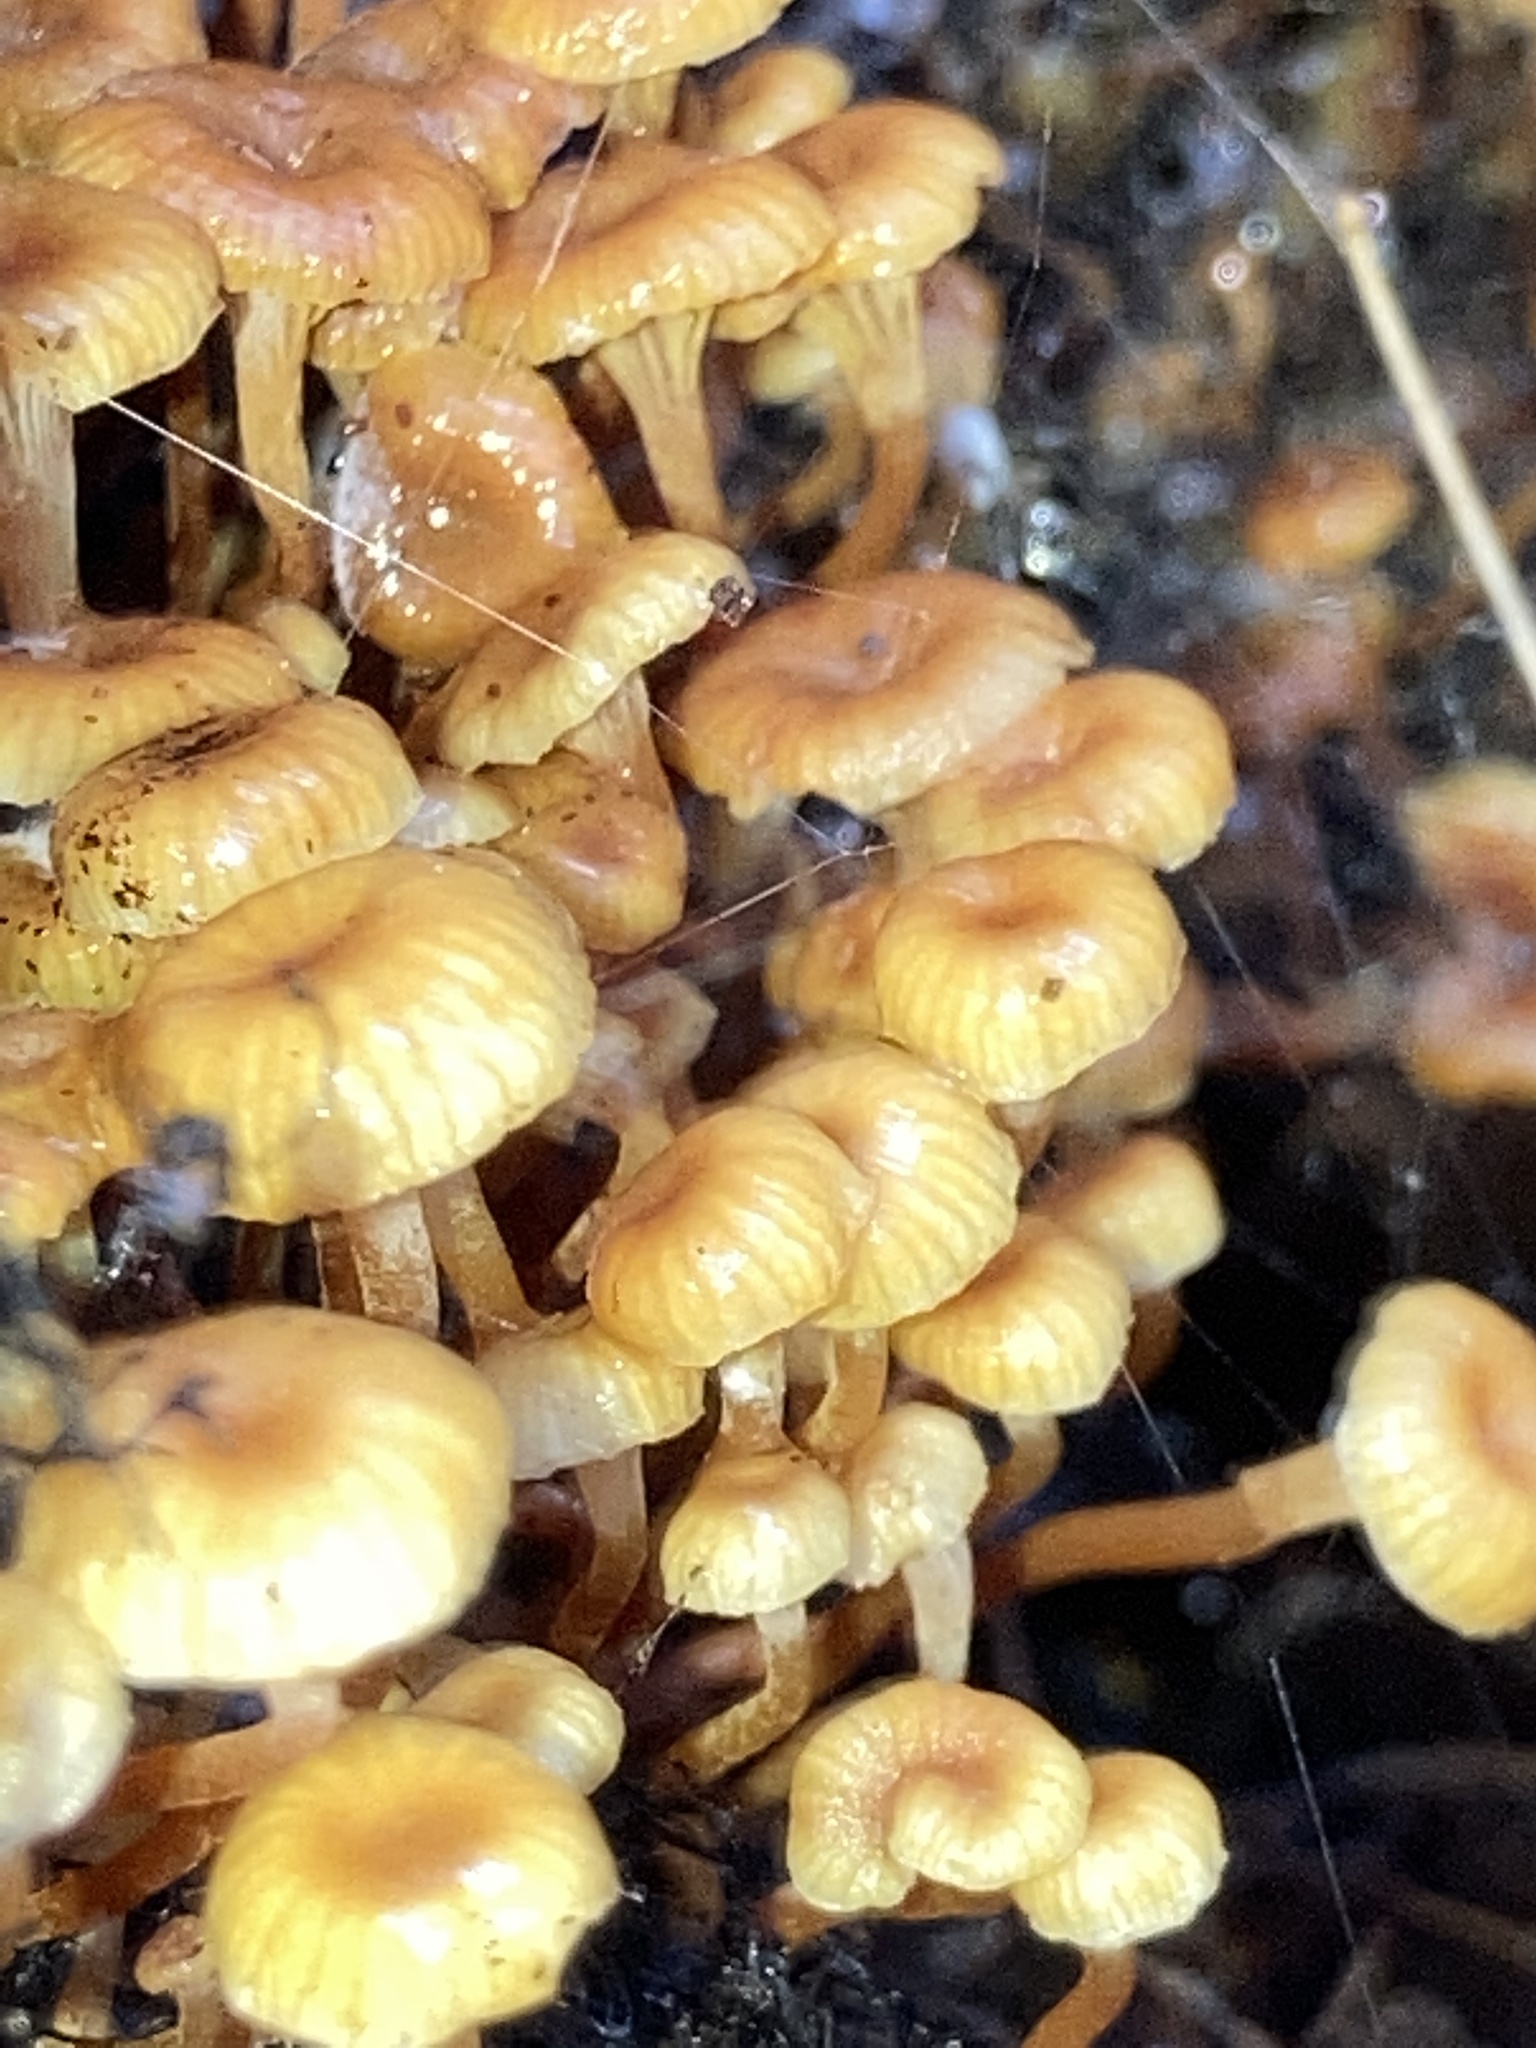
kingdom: Fungi
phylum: Basidiomycota
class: Agaricomycetes
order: Agaricales
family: Mycenaceae
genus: Xeromphalina
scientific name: Xeromphalina kauffmanii
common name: Cross-veined troop mushroom
